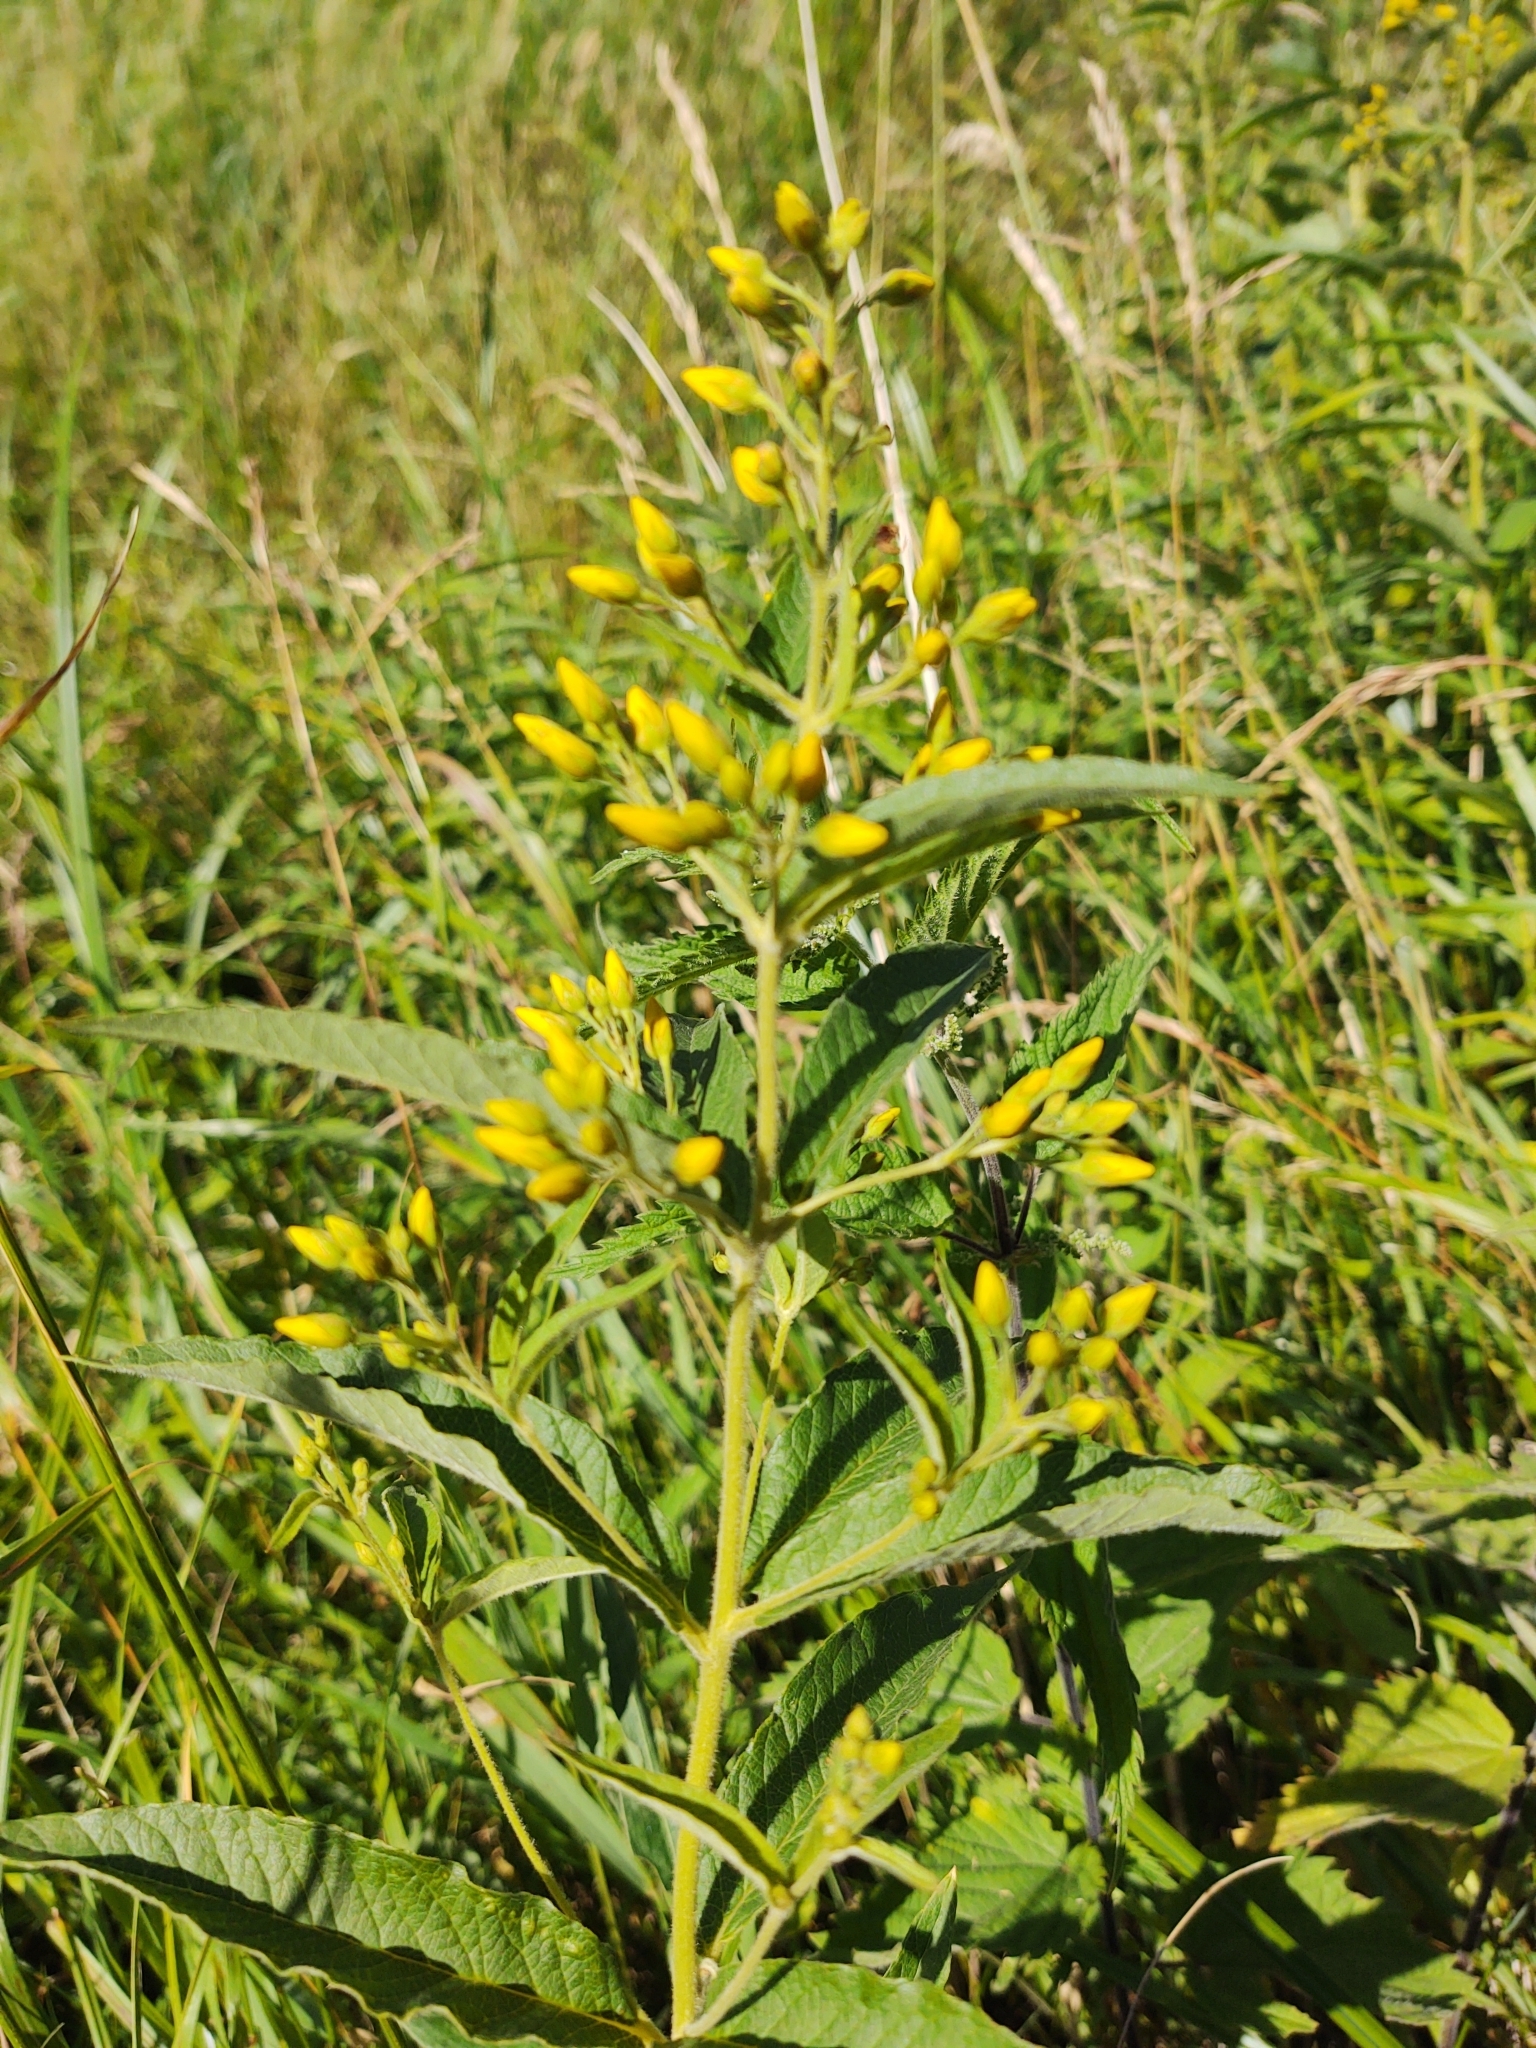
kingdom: Plantae
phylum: Tracheophyta
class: Magnoliopsida
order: Ericales
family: Primulaceae
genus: Lysimachia
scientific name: Lysimachia vulgaris
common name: Yellow loosestrife
